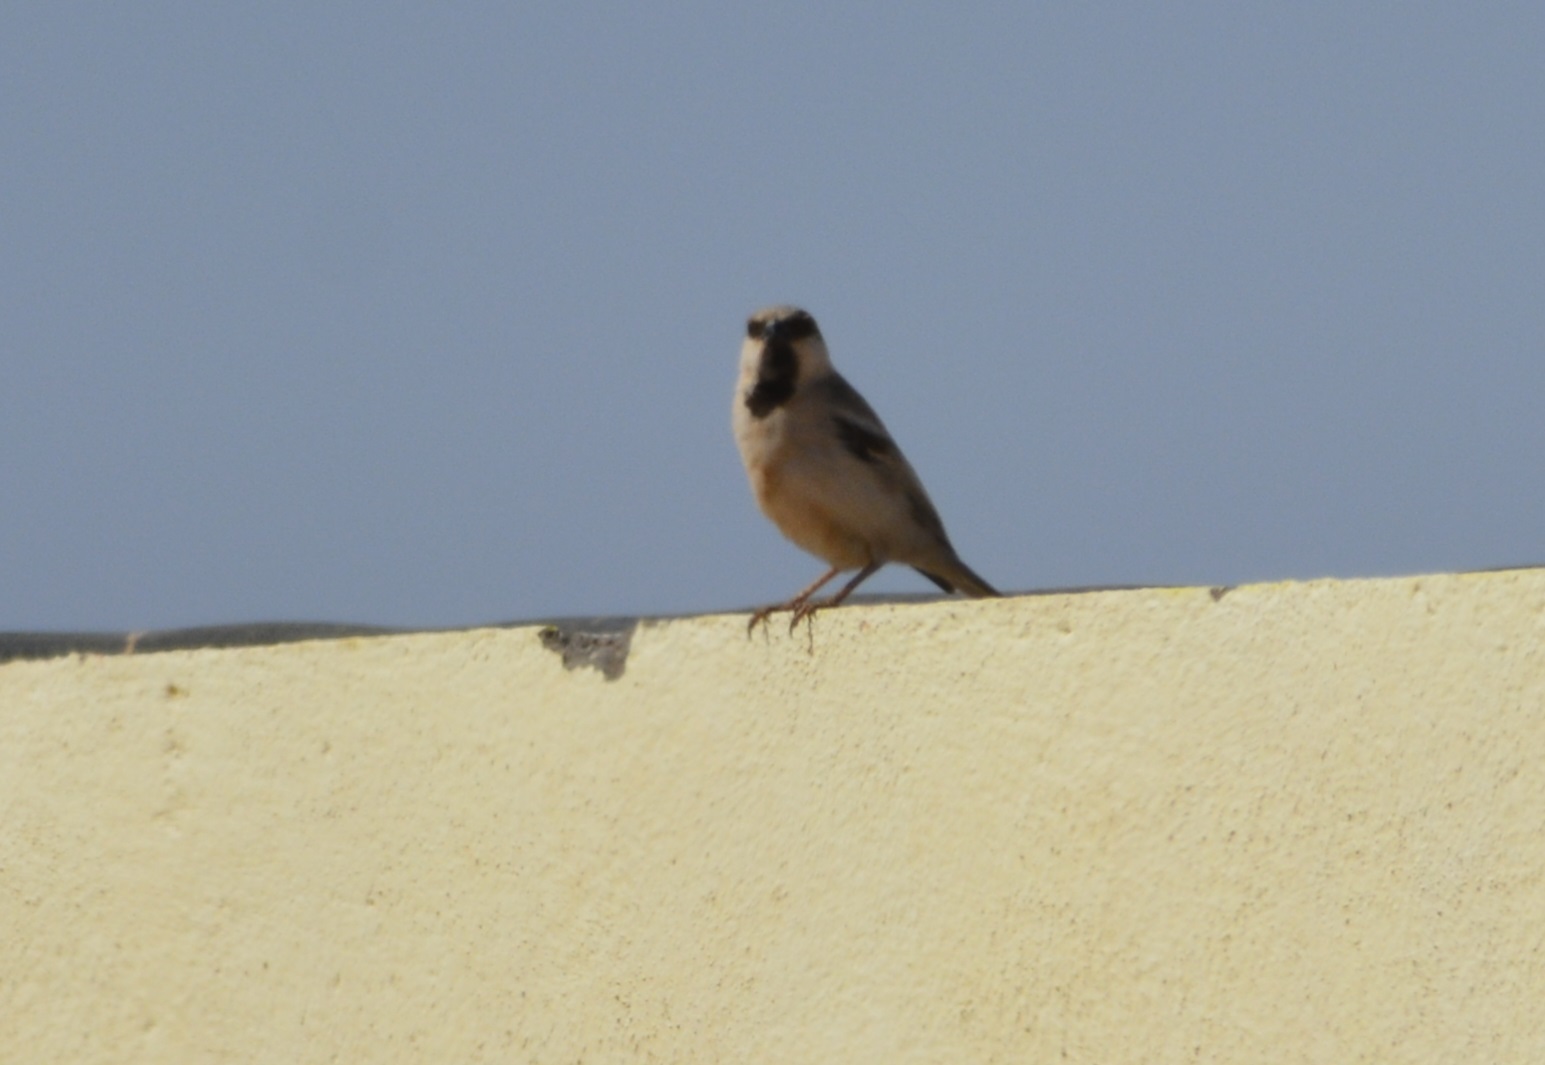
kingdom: Animalia
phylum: Chordata
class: Aves
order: Passeriformes
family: Passeridae
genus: Passer
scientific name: Passer simplex
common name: Desert sparrow
